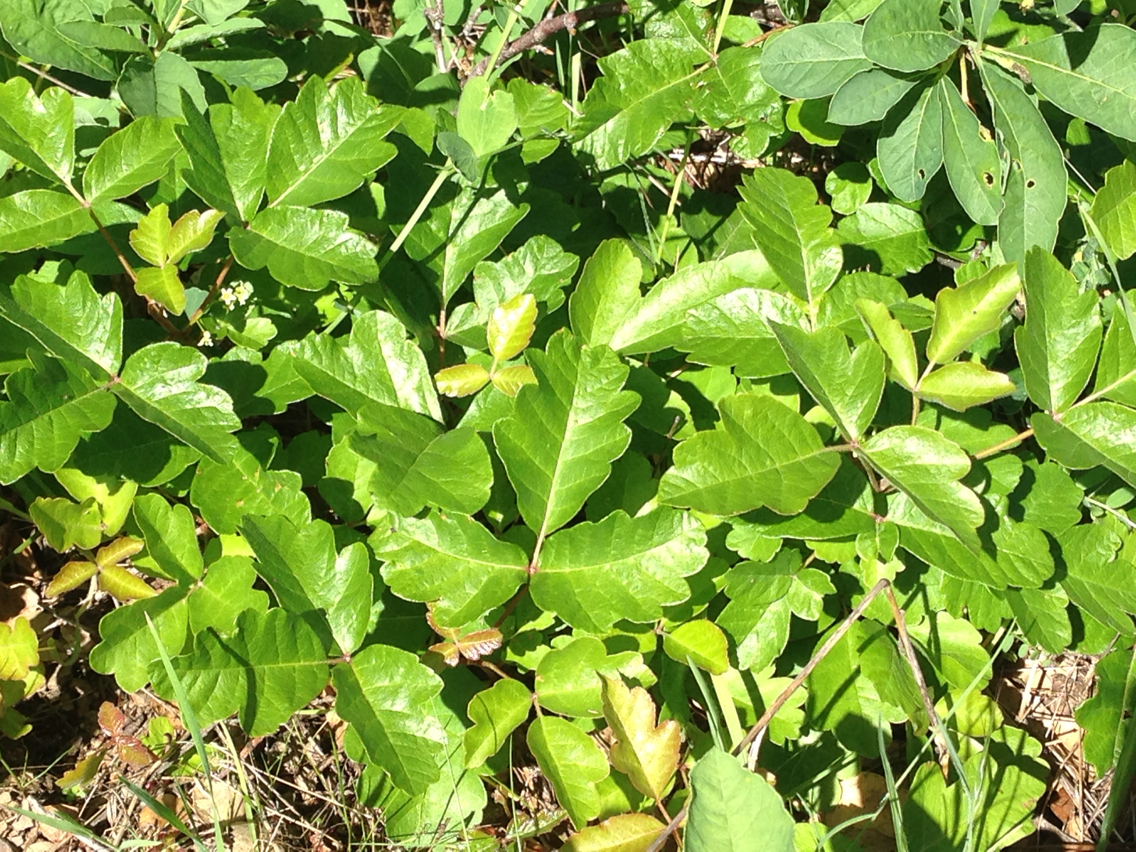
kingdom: Plantae
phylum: Tracheophyta
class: Magnoliopsida
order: Sapindales
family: Anacardiaceae
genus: Toxicodendron
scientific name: Toxicodendron diversilobum
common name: Pacific poison-oak
